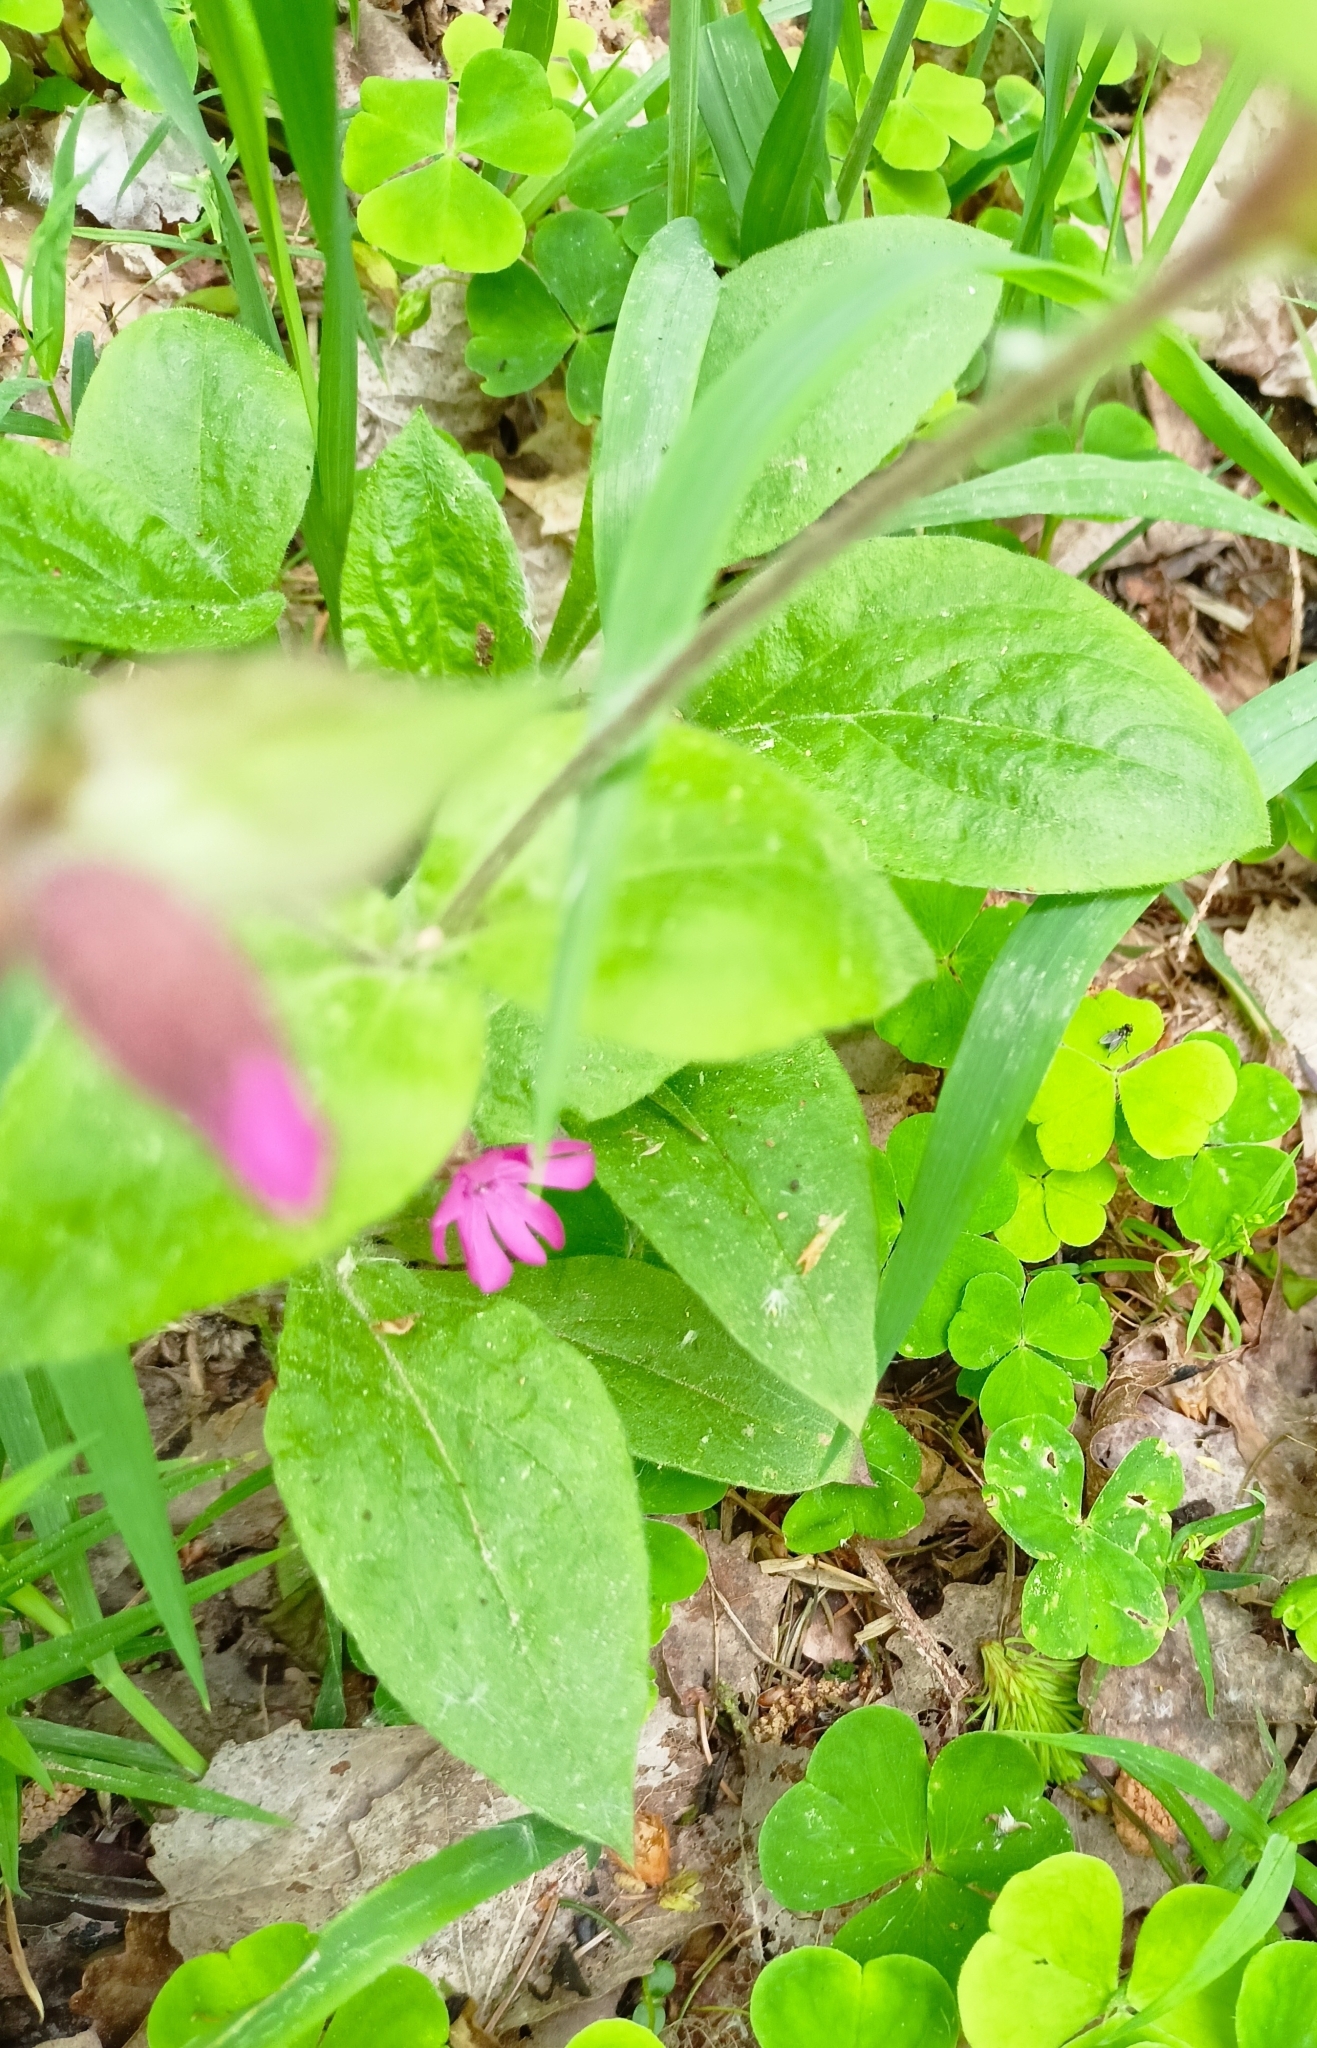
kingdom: Plantae
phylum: Tracheophyta
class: Magnoliopsida
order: Caryophyllales
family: Caryophyllaceae
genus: Silene
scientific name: Silene dioica
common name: Red campion
